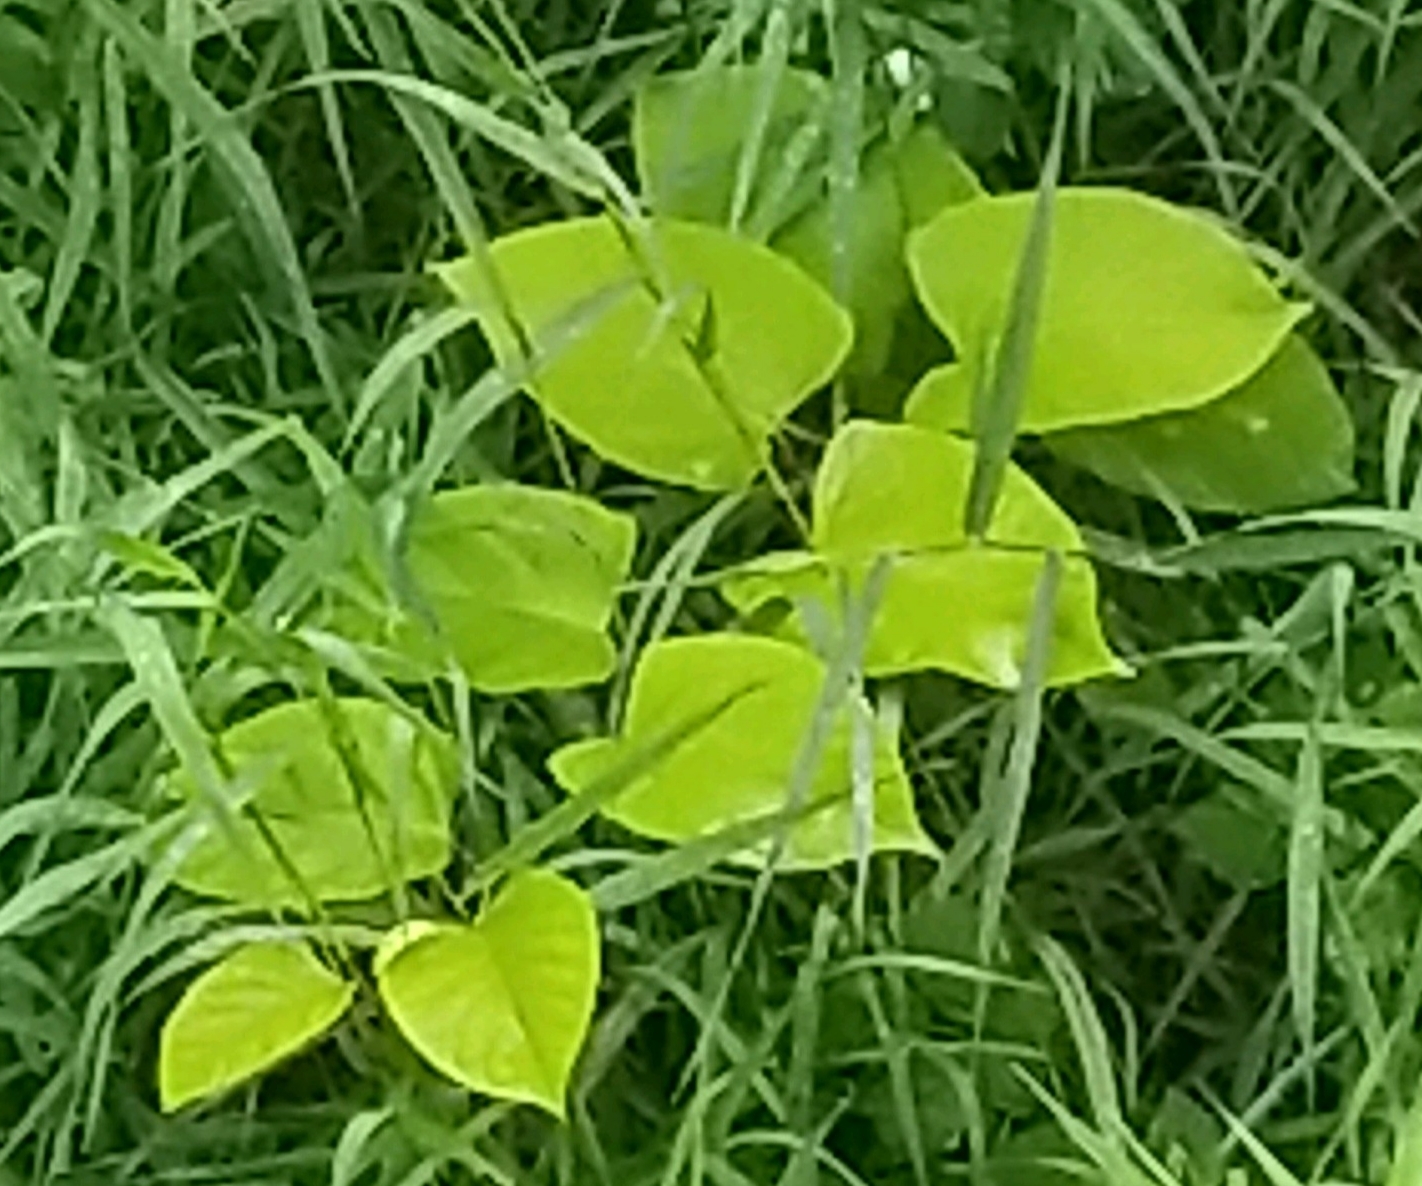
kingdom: Plantae
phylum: Tracheophyta
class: Magnoliopsida
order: Caryophyllales
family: Polygonaceae
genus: Reynoutria
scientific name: Reynoutria bohemica
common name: Bohemian knotweed
